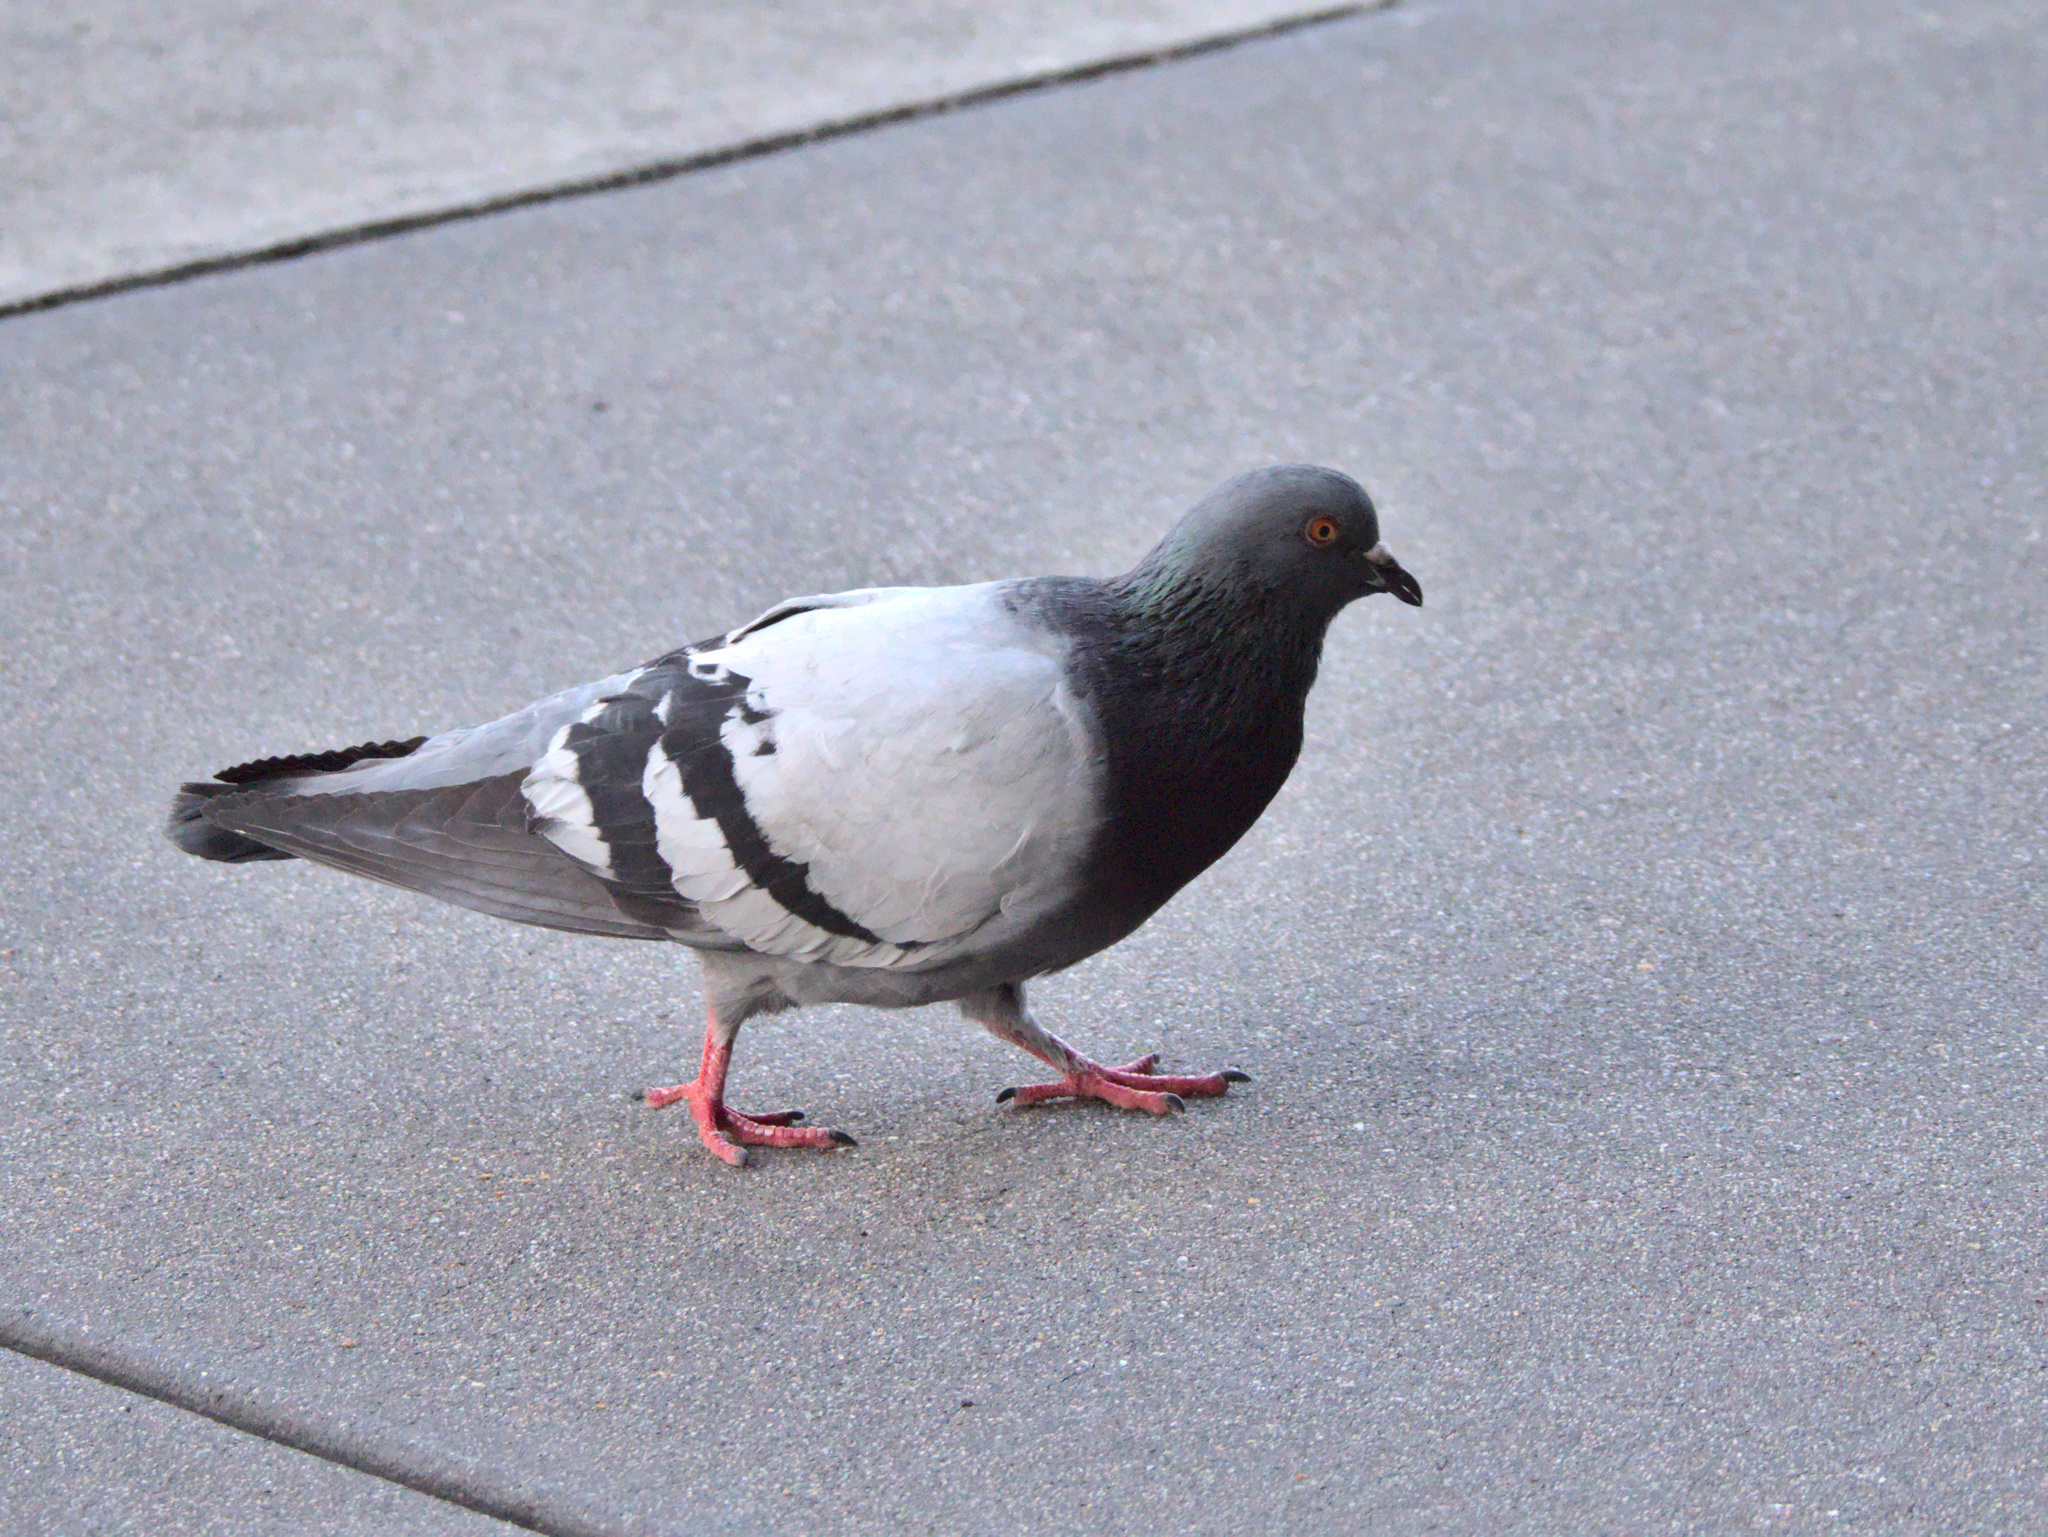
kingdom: Animalia
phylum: Chordata
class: Aves
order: Columbiformes
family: Columbidae
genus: Columba
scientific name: Columba livia
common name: Rock pigeon
